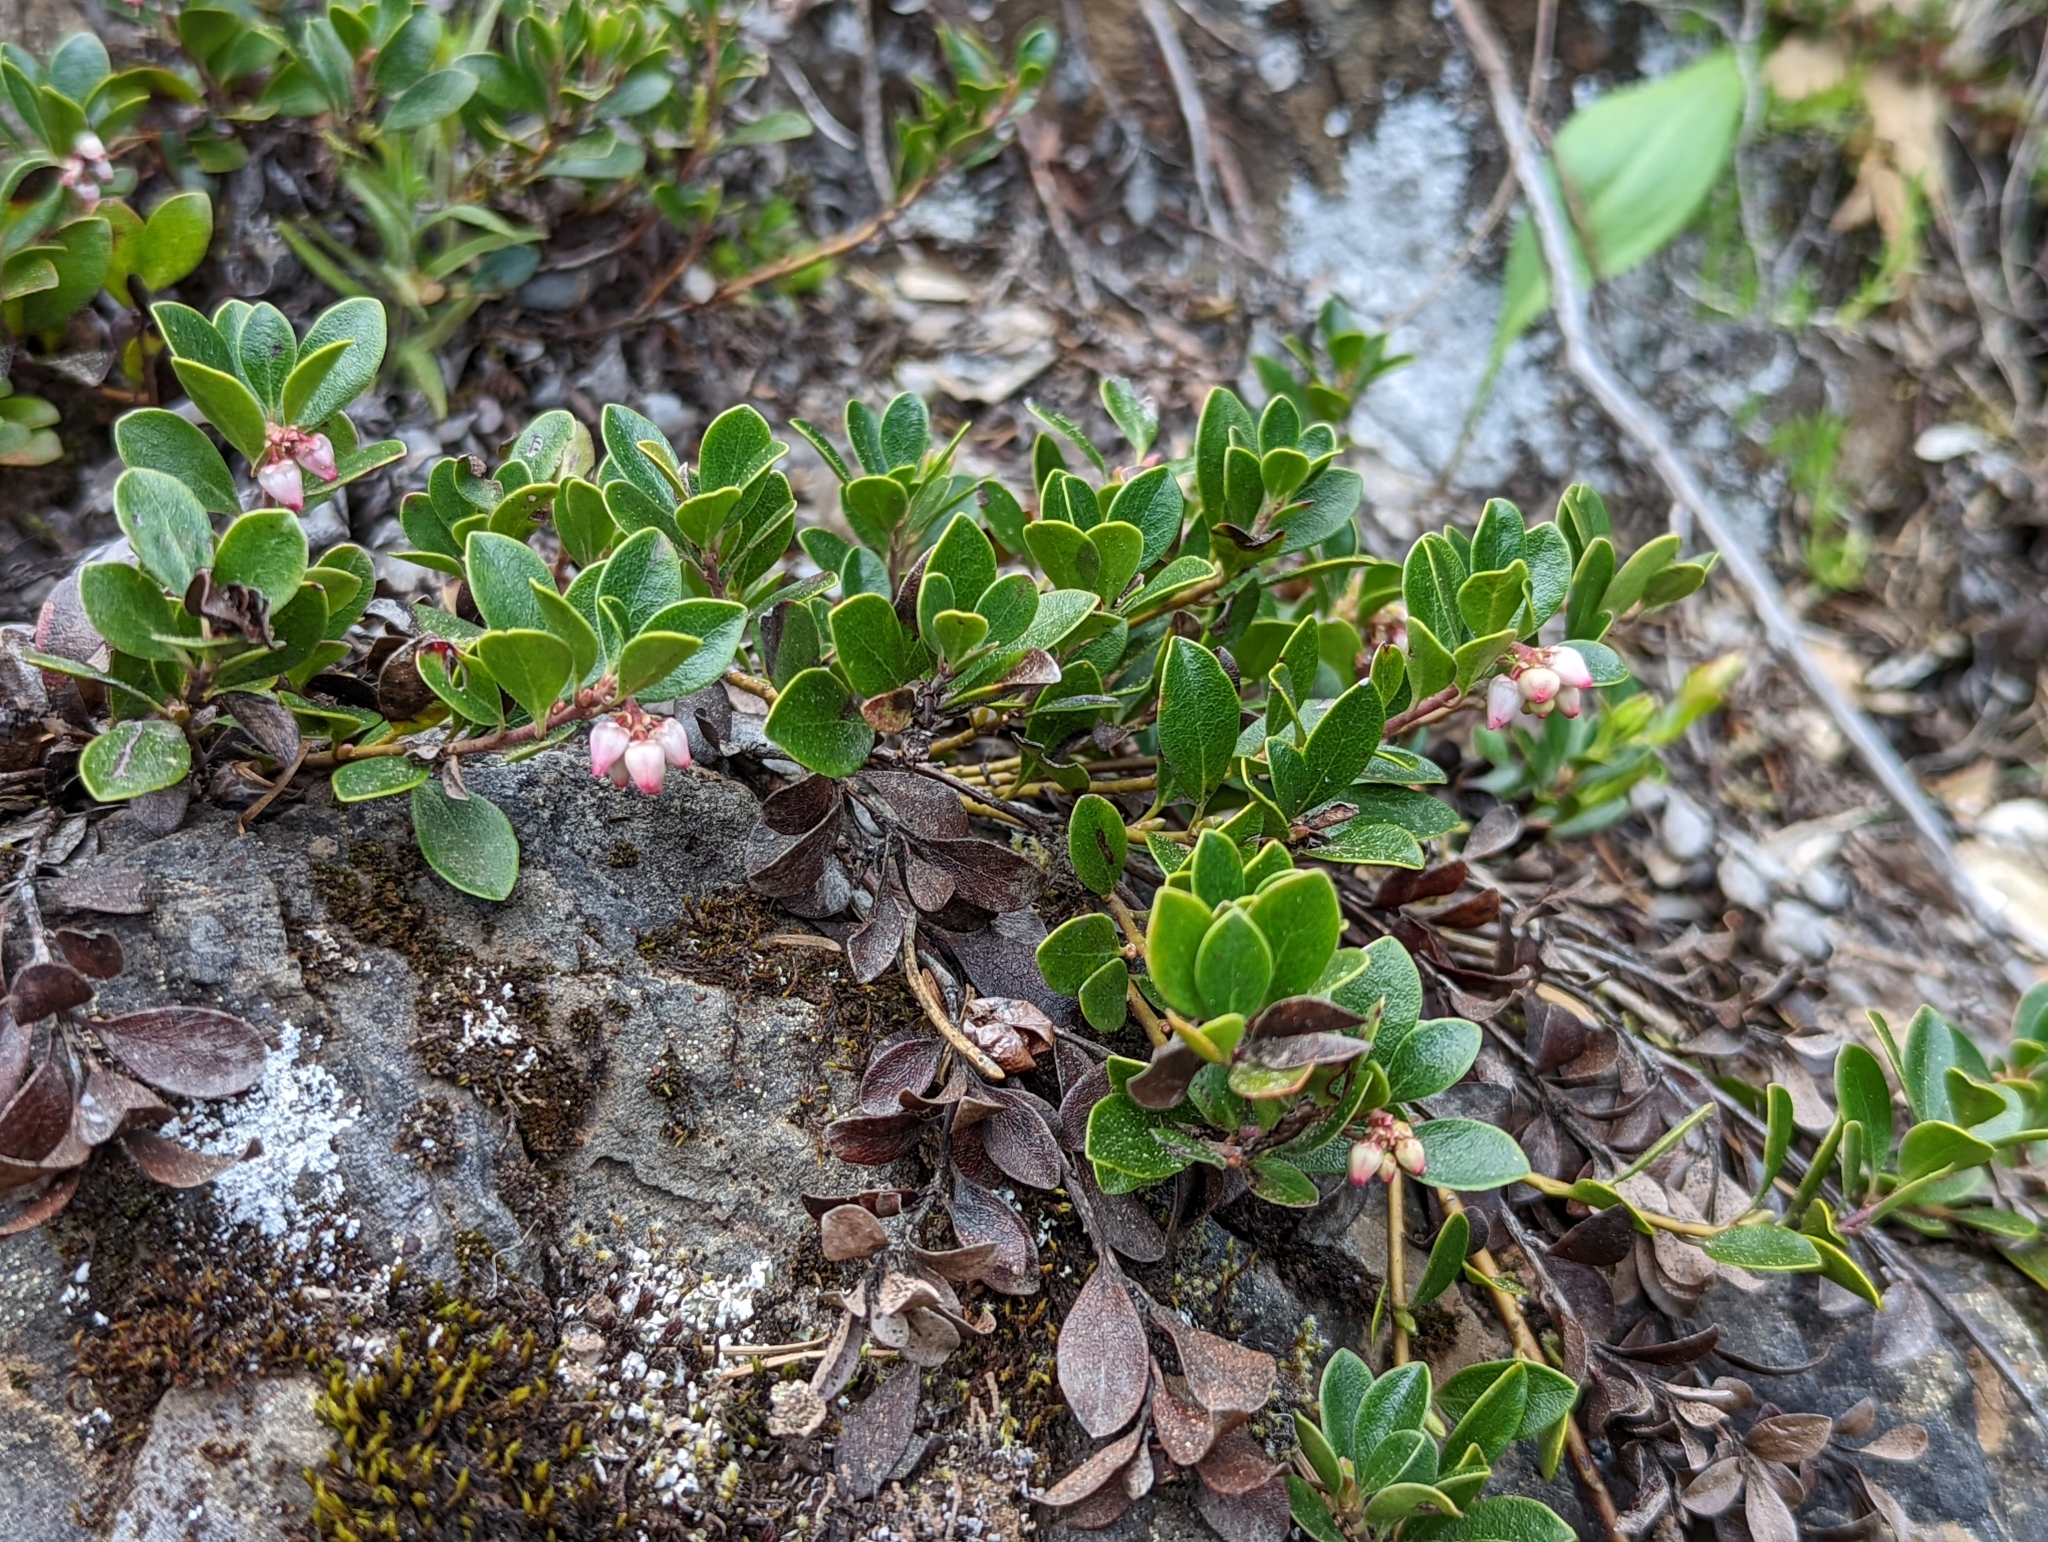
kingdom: Plantae
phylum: Tracheophyta
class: Magnoliopsida
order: Ericales
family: Ericaceae
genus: Arctostaphylos
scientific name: Arctostaphylos uva-ursi
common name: Bearberry
